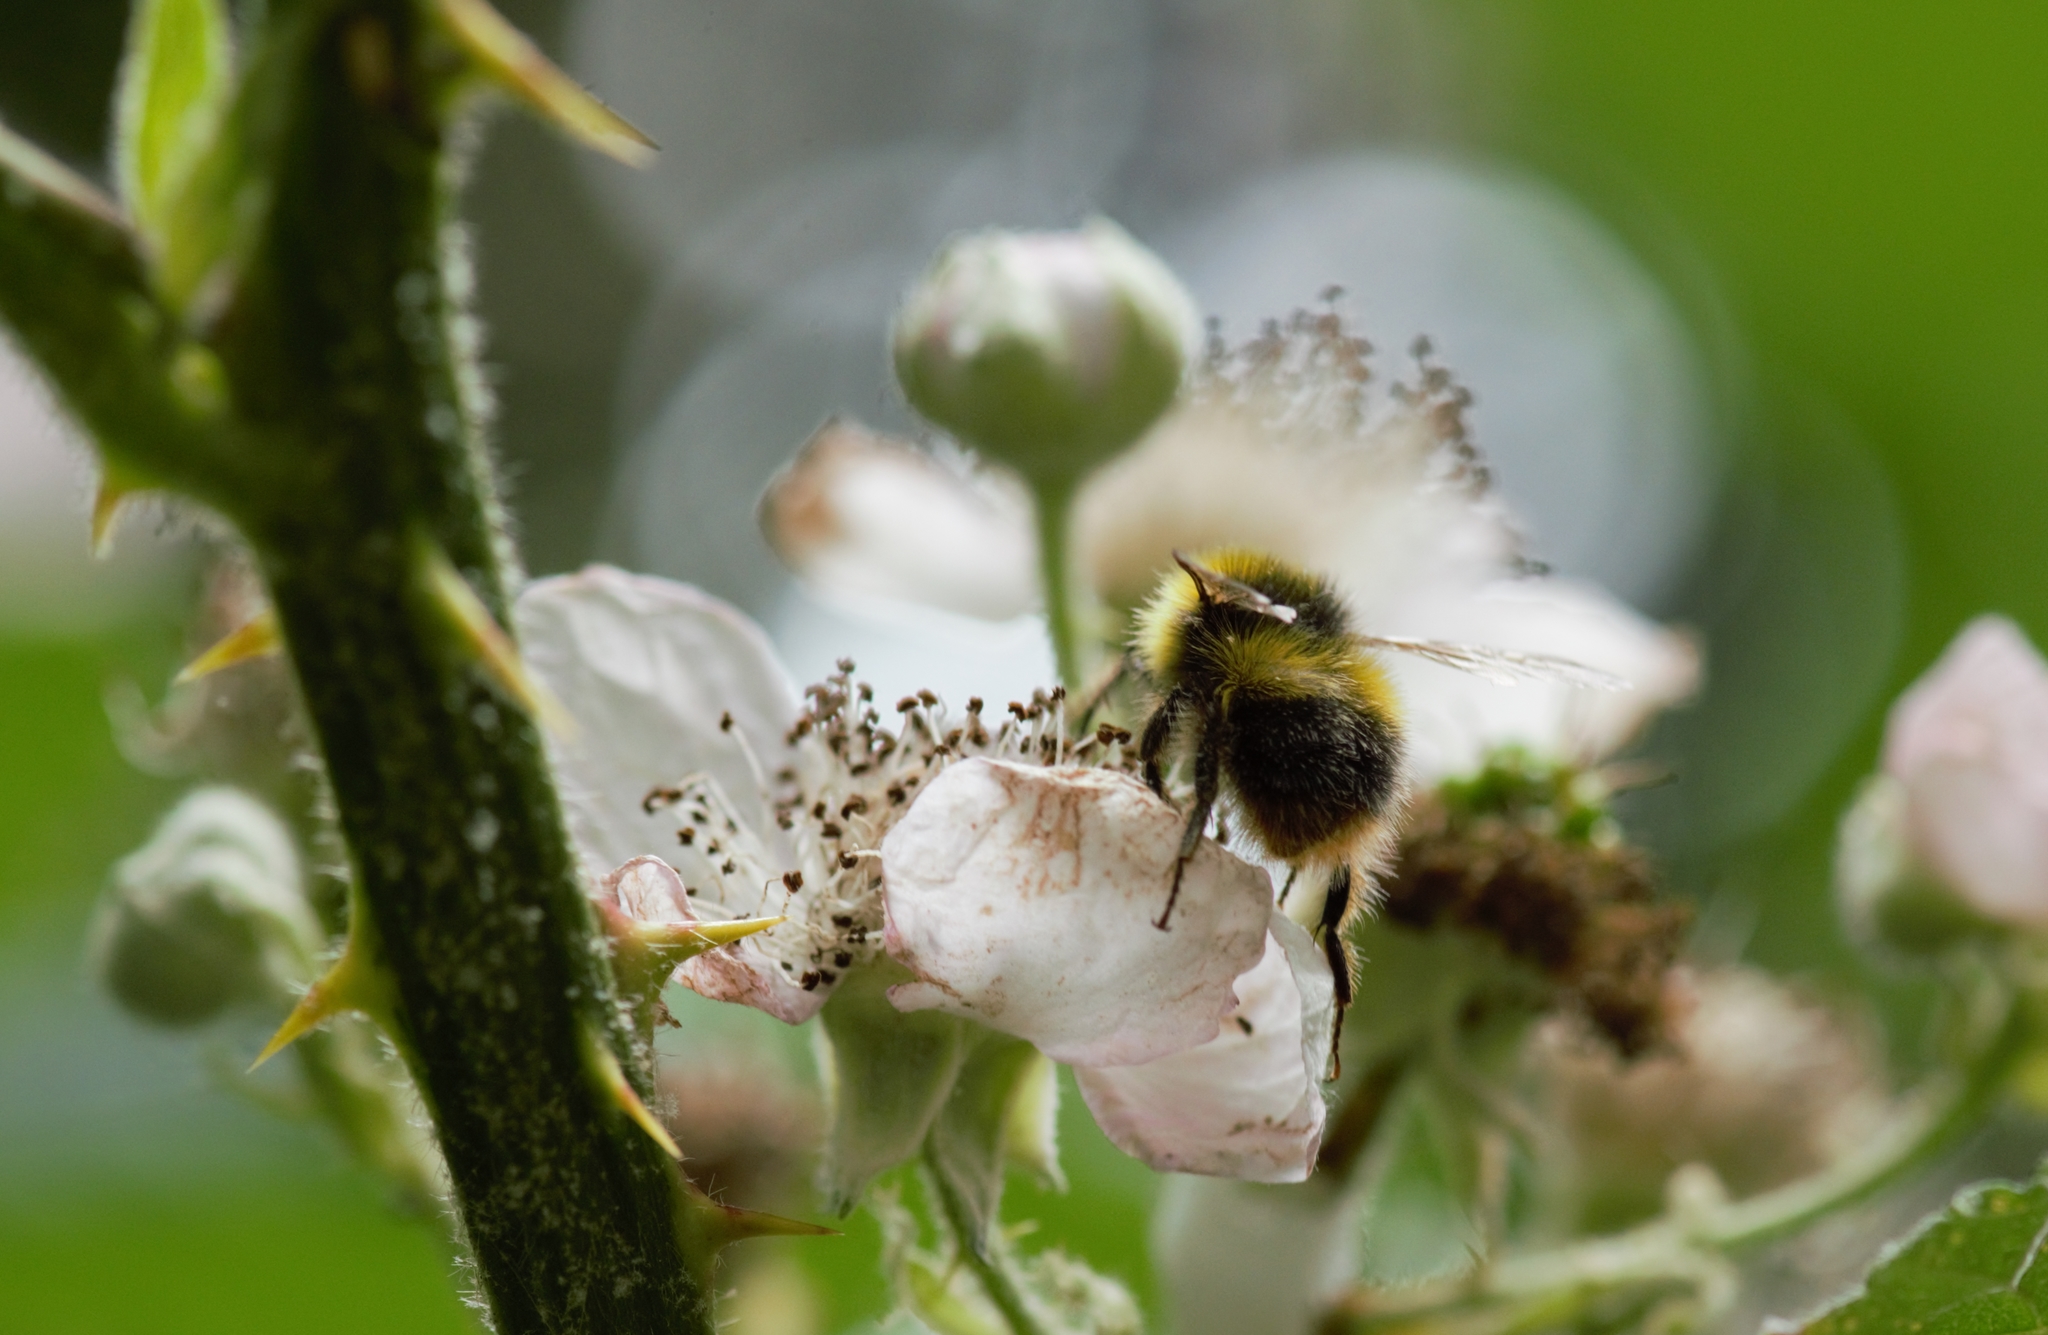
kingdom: Animalia
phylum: Arthropoda
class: Insecta
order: Hymenoptera
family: Apidae
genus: Bombus
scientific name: Bombus pratorum
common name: Early humble-bee
